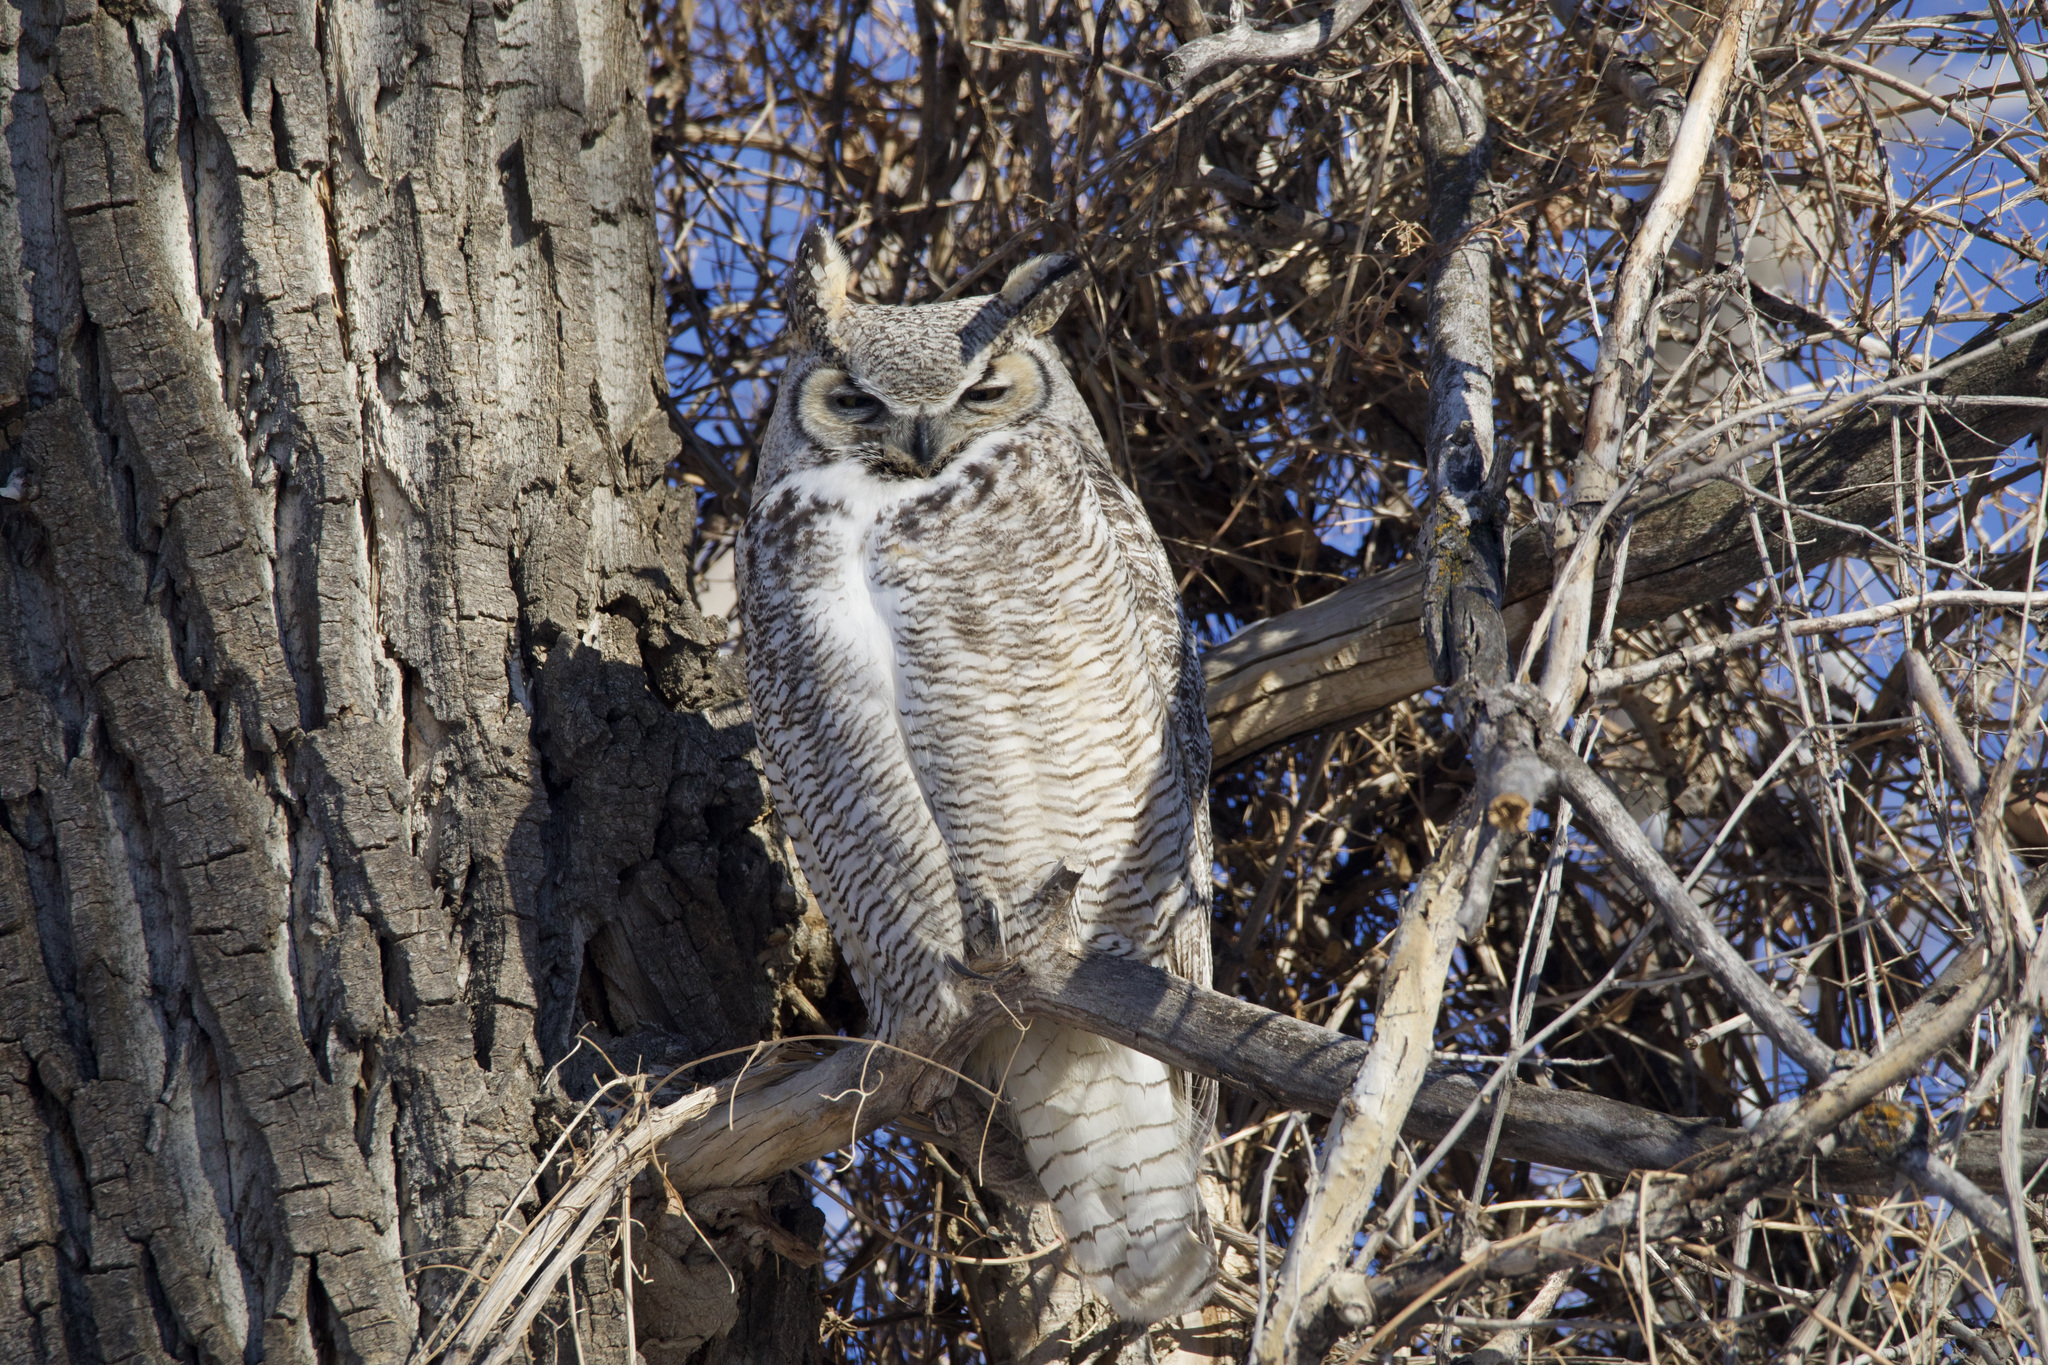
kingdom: Animalia
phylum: Chordata
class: Aves
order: Strigiformes
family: Strigidae
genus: Bubo
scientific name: Bubo virginianus
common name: Great horned owl
